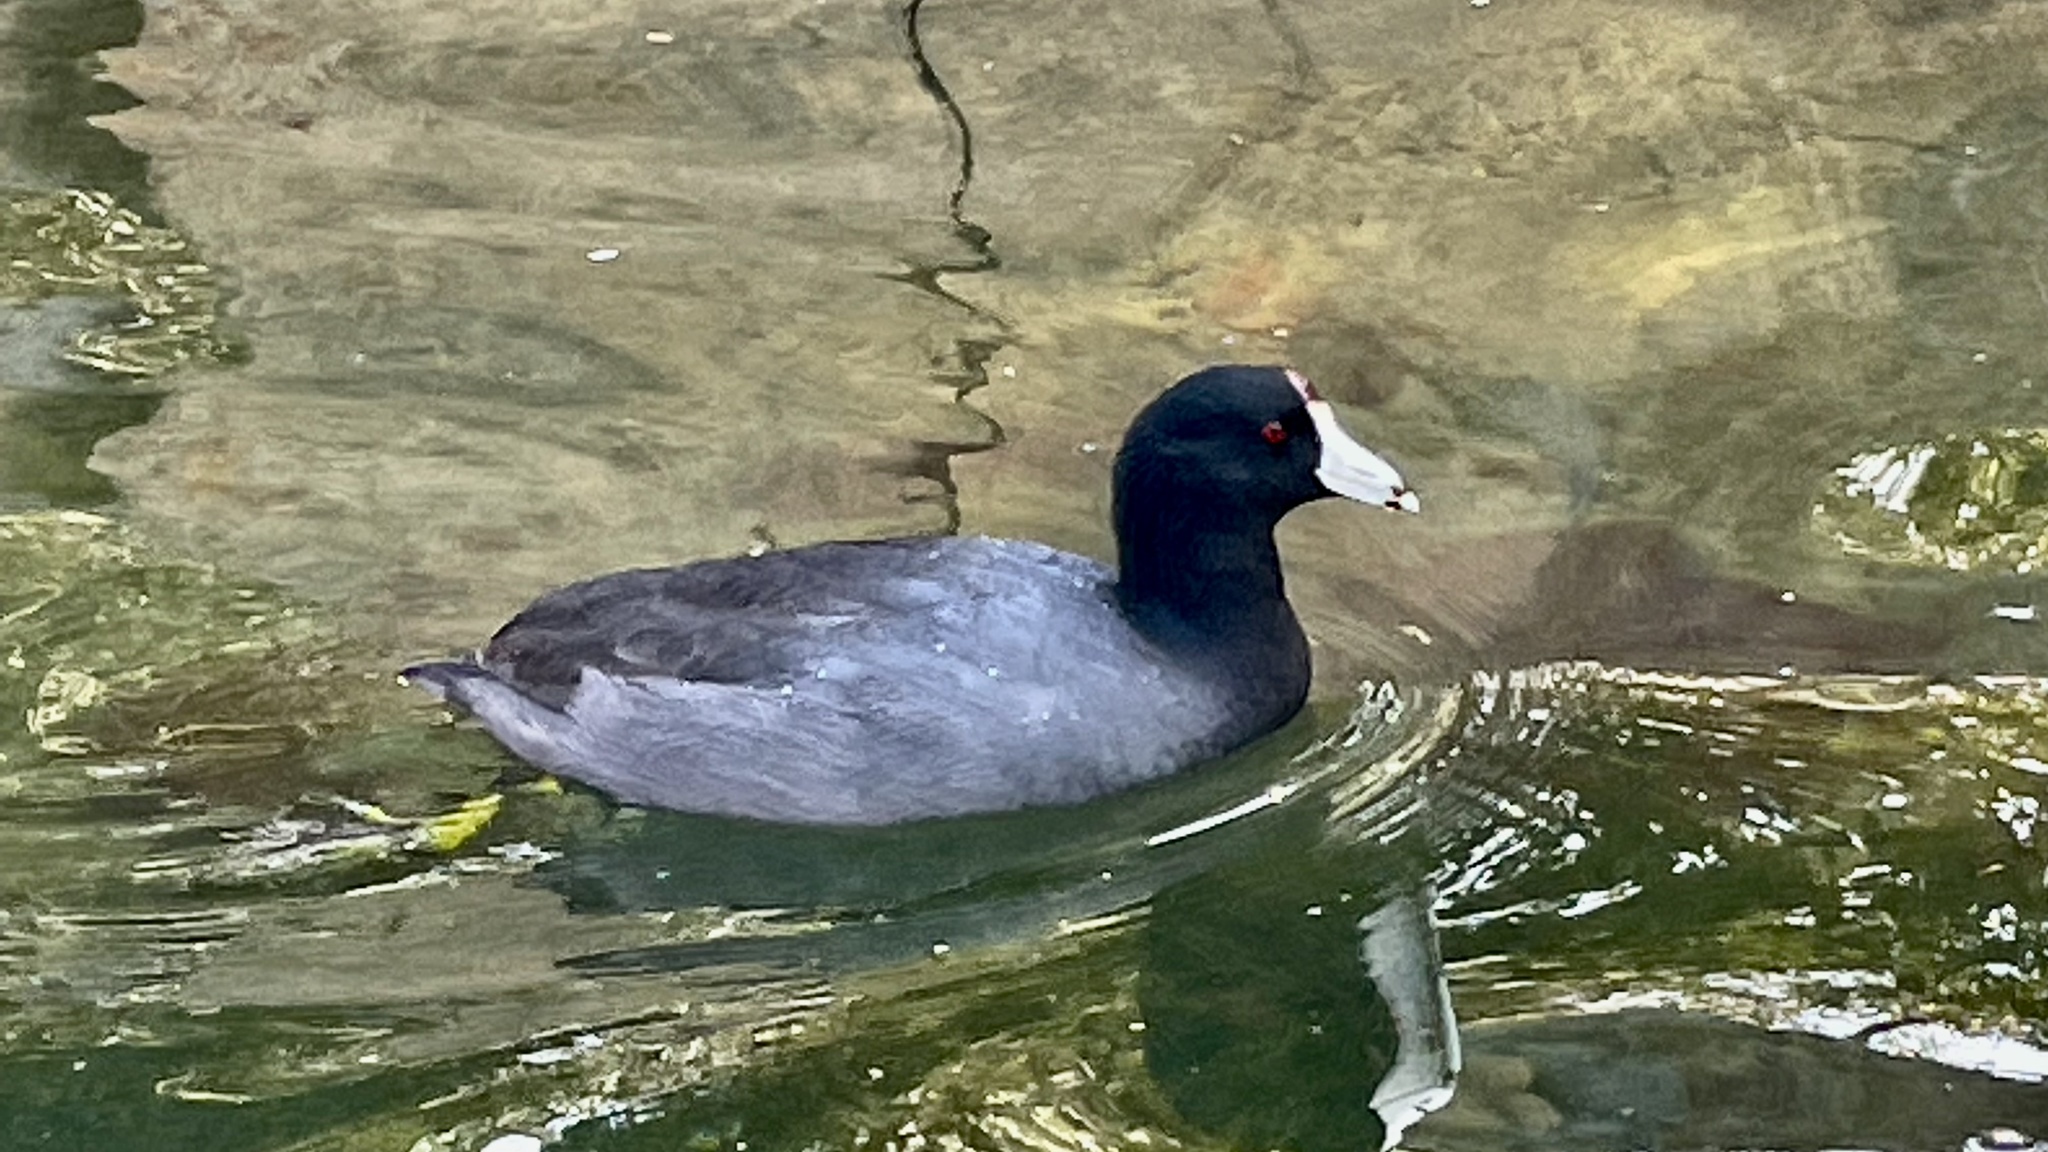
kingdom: Animalia
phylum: Chordata
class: Aves
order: Gruiformes
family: Rallidae
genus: Fulica
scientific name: Fulica americana
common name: American coot
